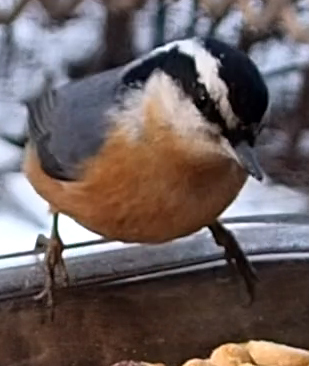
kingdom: Animalia
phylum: Chordata
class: Aves
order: Passeriformes
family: Sittidae
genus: Sitta
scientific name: Sitta canadensis
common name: Red-breasted nuthatch
